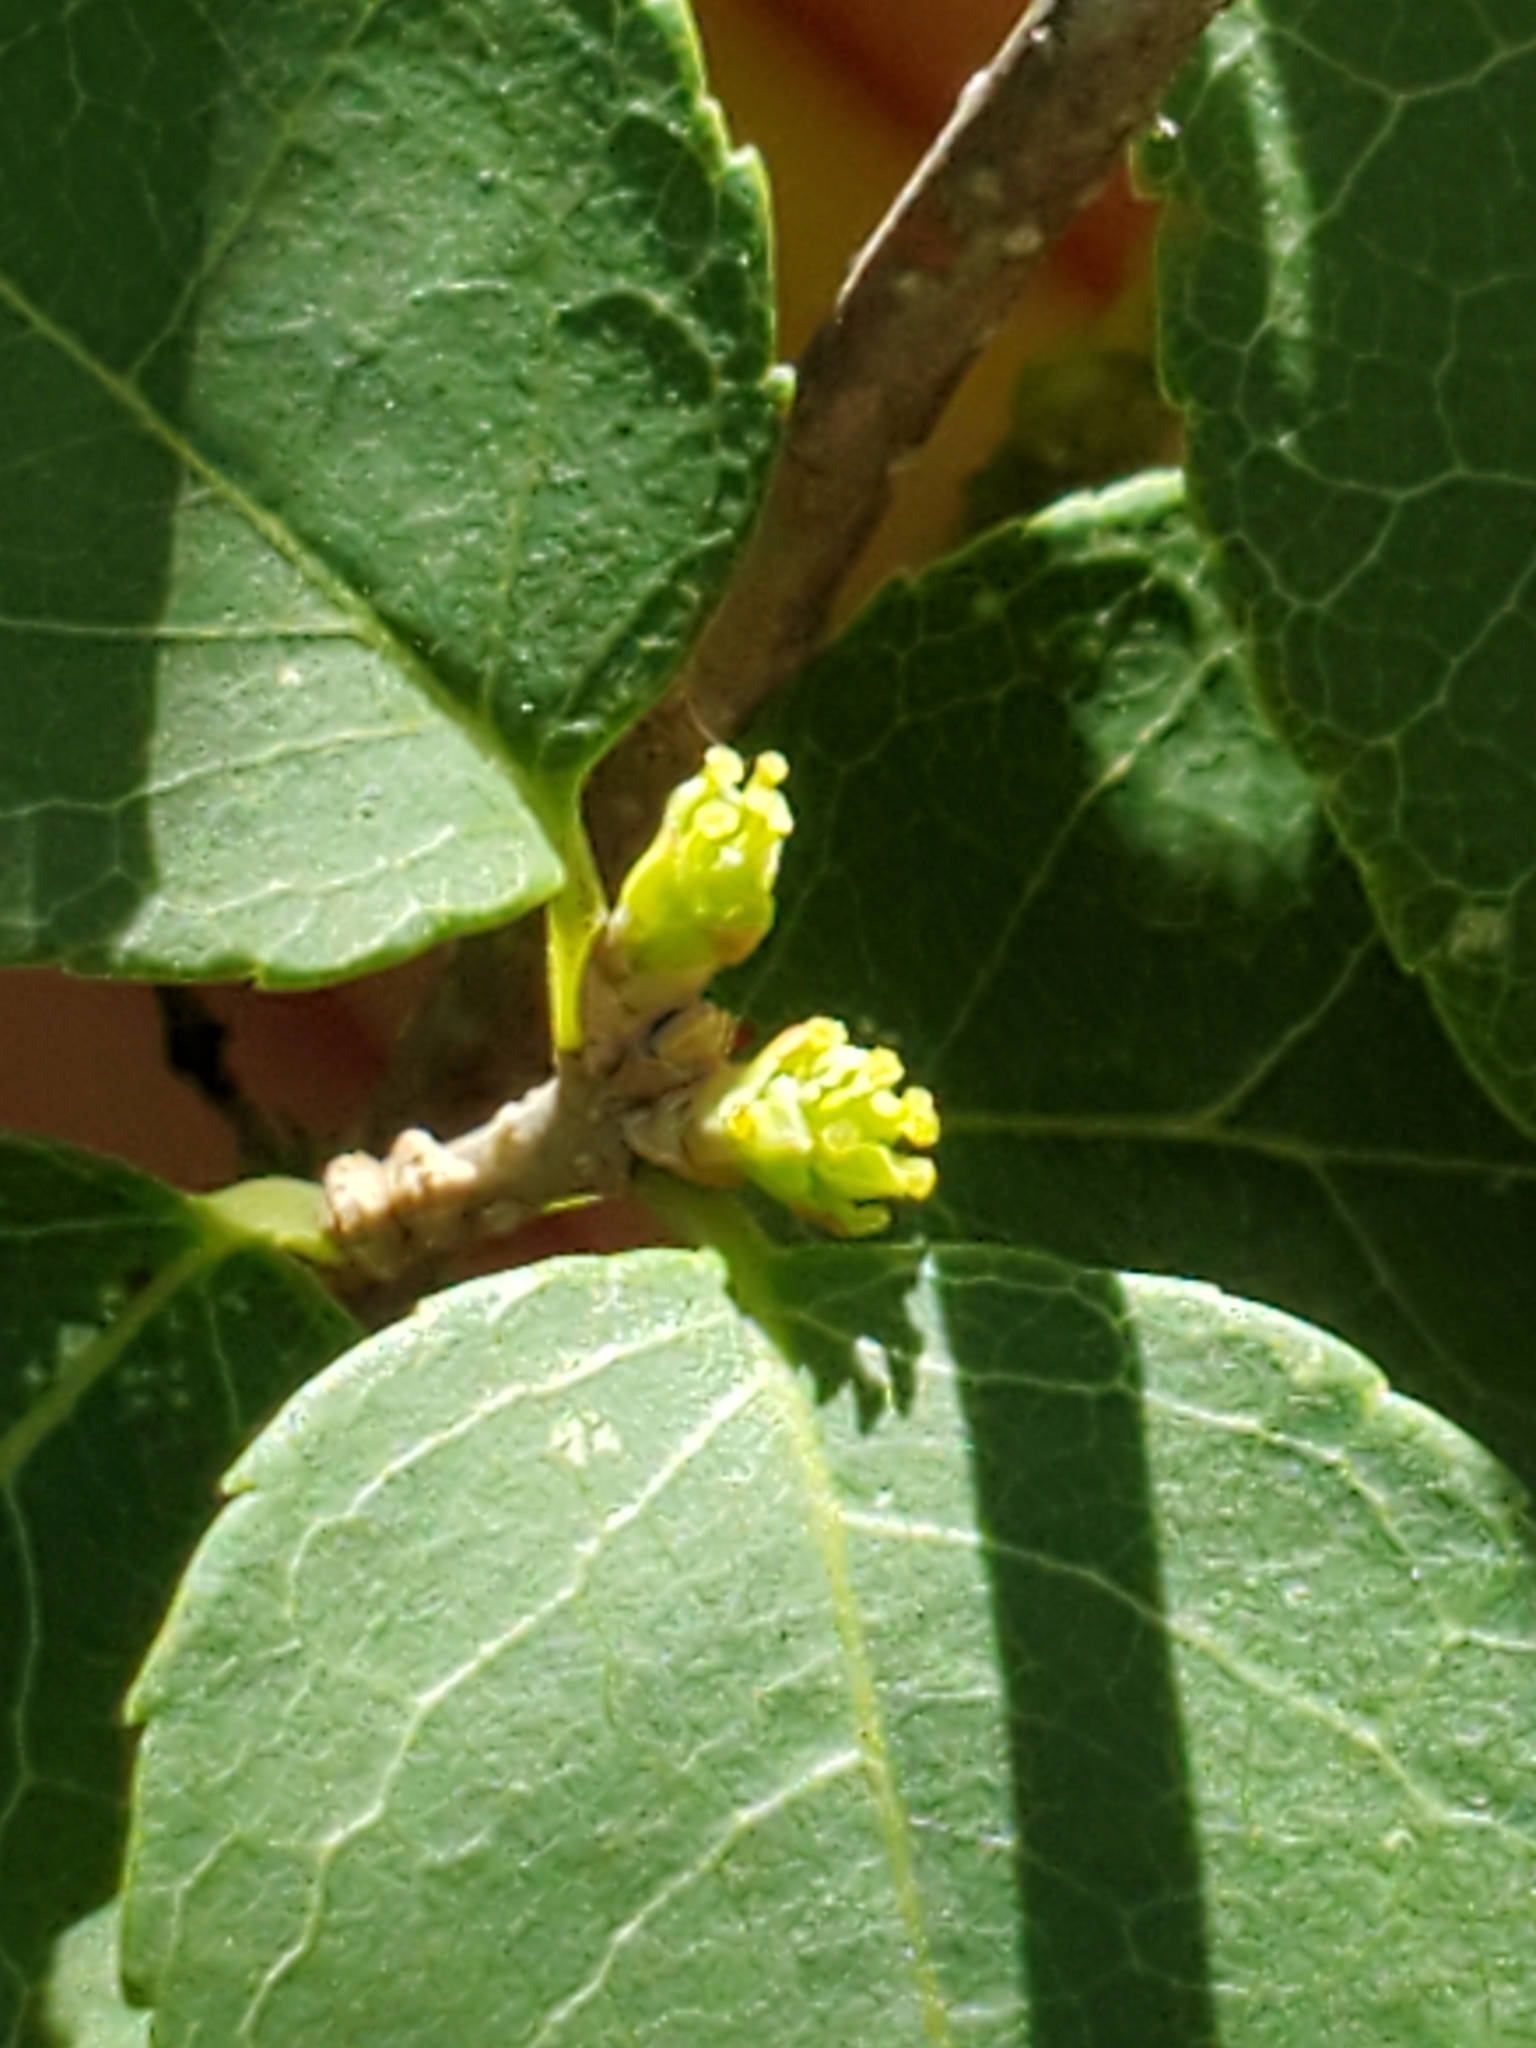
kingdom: Plantae
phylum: Tracheophyta
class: Magnoliopsida
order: Lamiales
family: Oleaceae
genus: Forestiera
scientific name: Forestiera reticulata
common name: Netleaf swamp-privet
